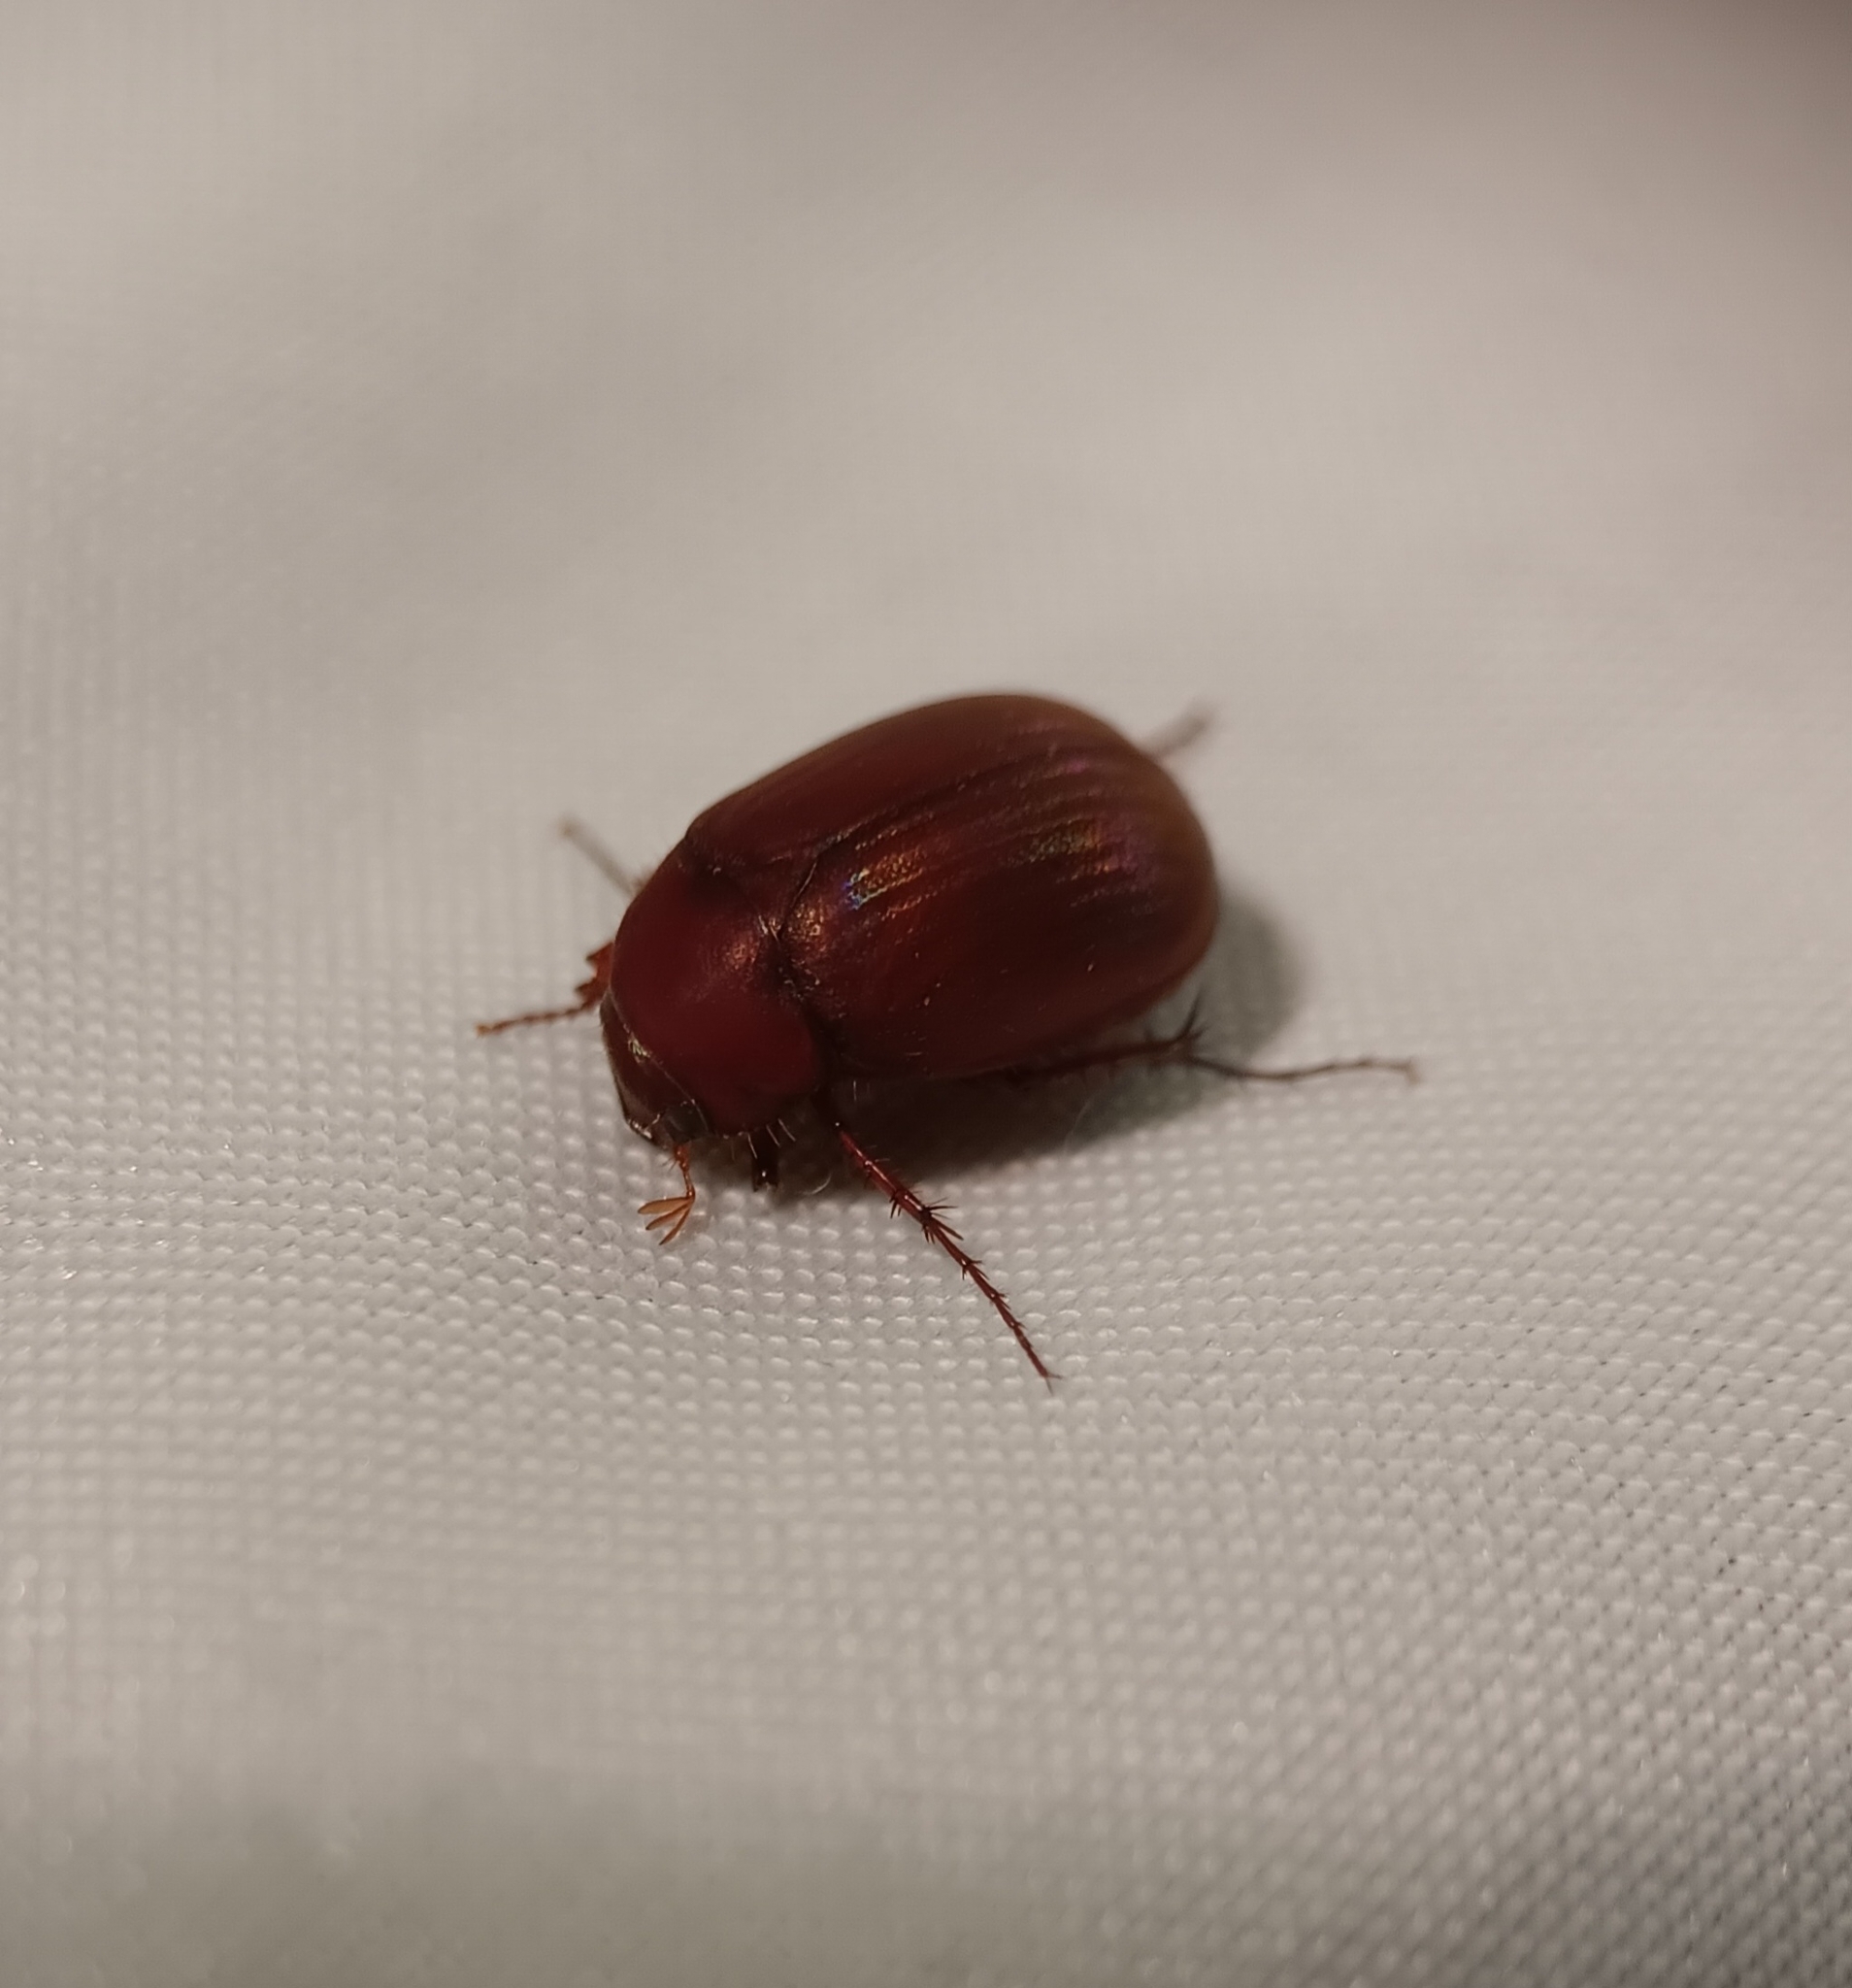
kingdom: Animalia
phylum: Arthropoda
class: Insecta
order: Coleoptera
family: Scarabaeidae
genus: Maladera
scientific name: Maladera formosae
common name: Asiatic garden beetle
